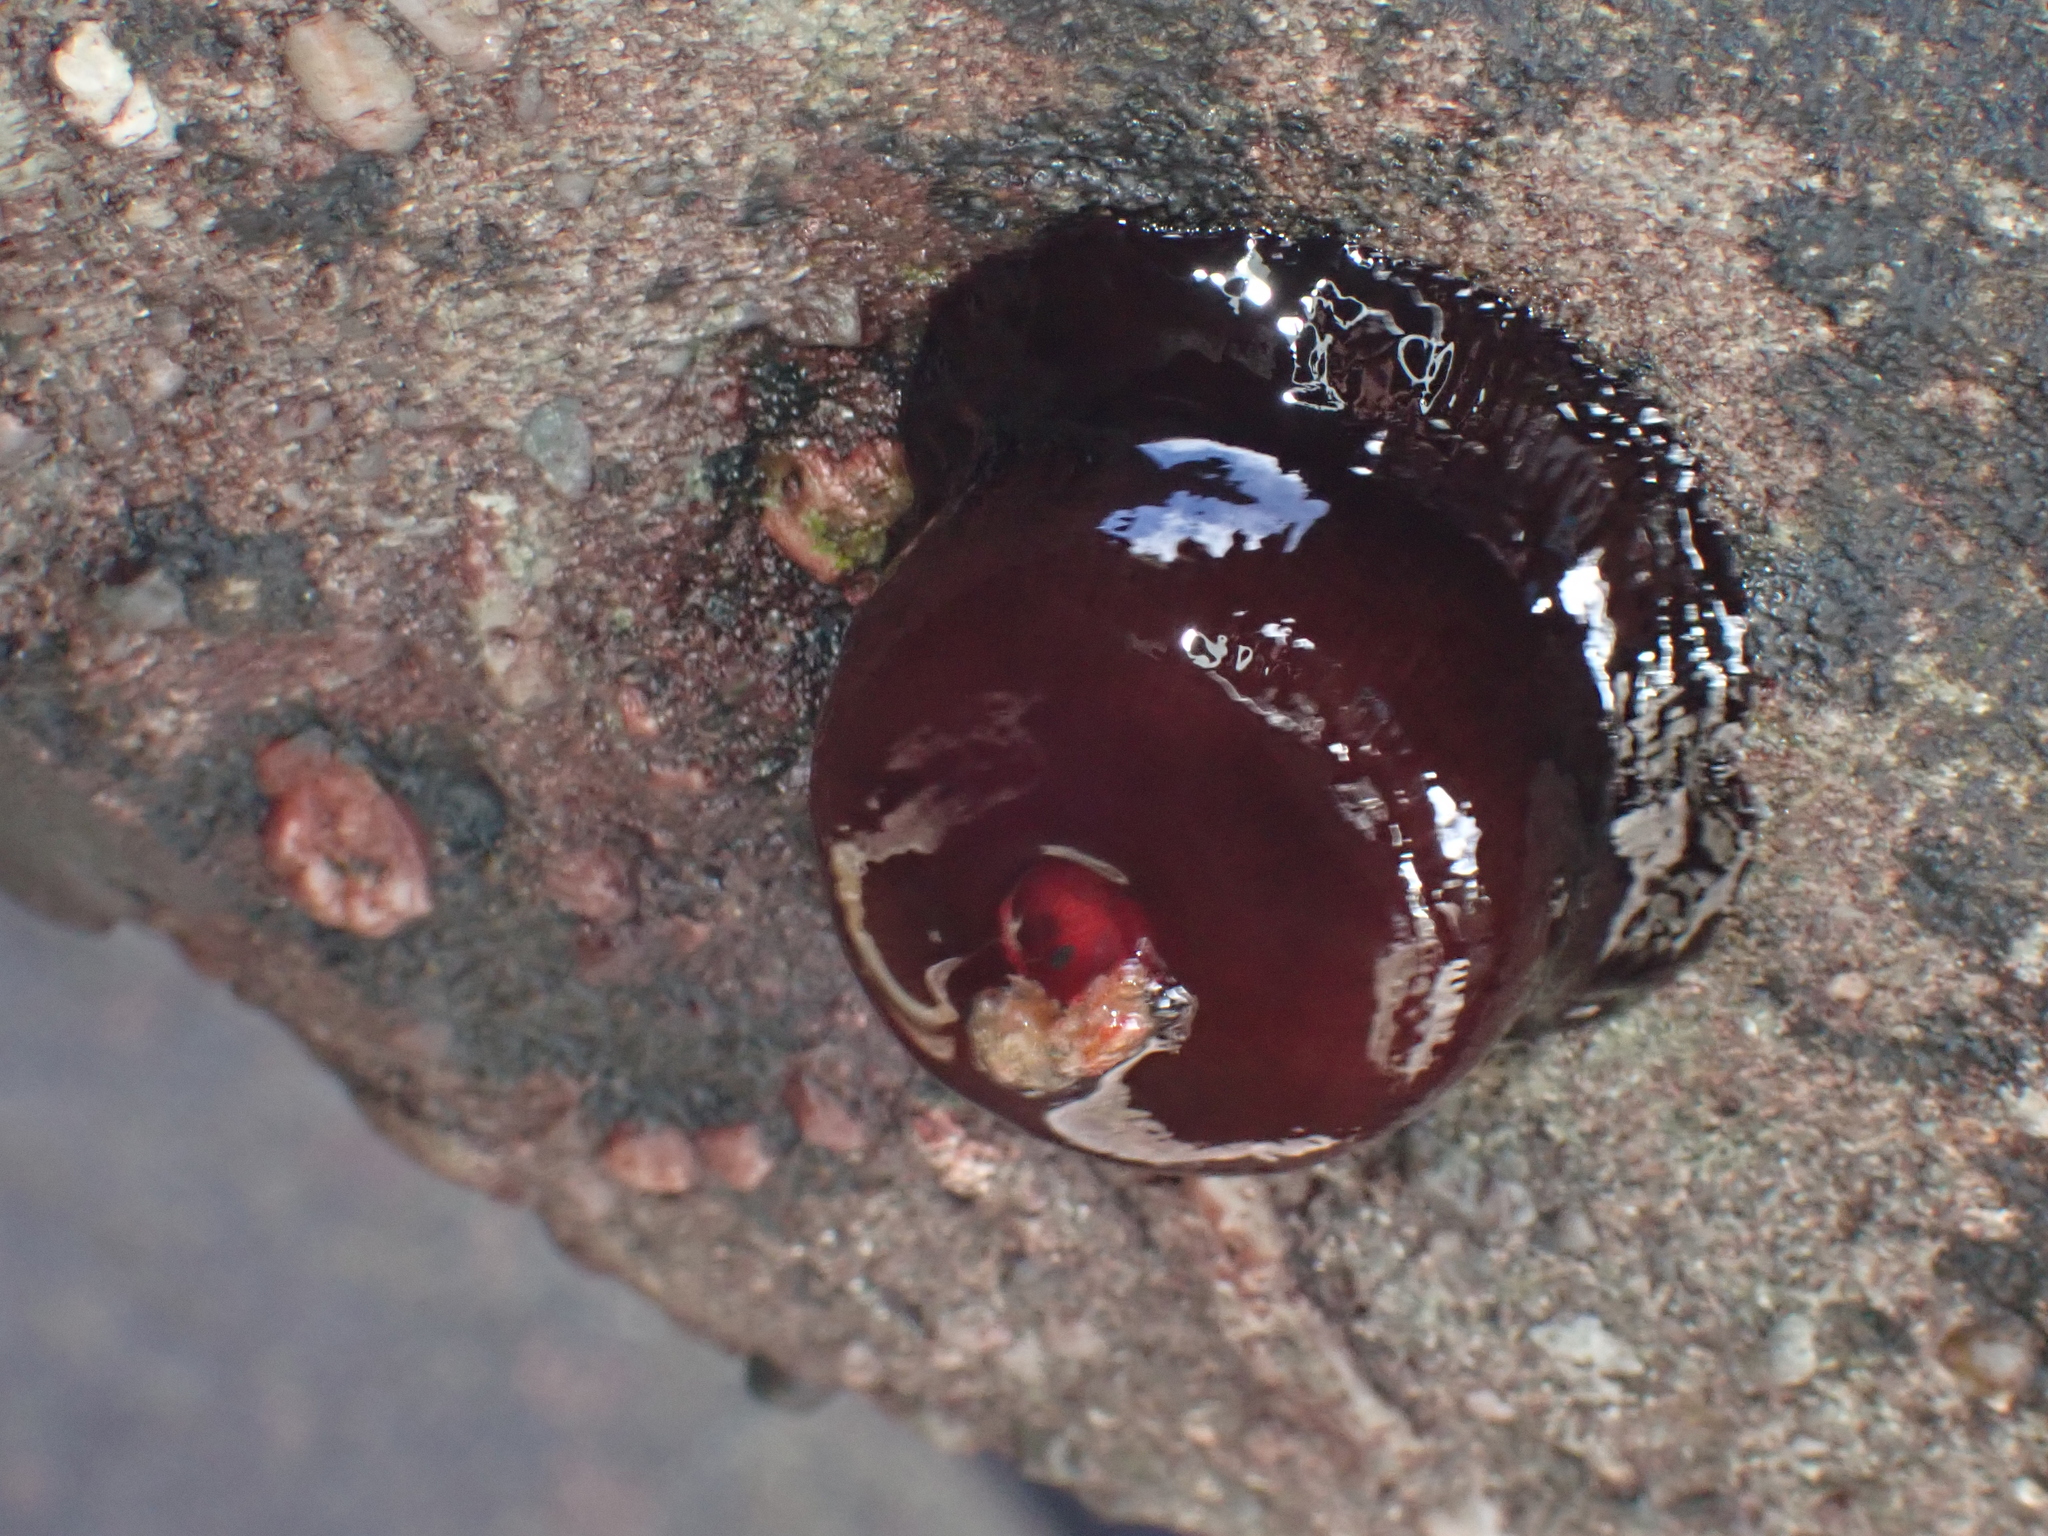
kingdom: Animalia
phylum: Cnidaria
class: Anthozoa
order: Actiniaria
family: Actiniidae
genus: Actinia
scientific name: Actinia tenebrosa
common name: Waratah anemone
